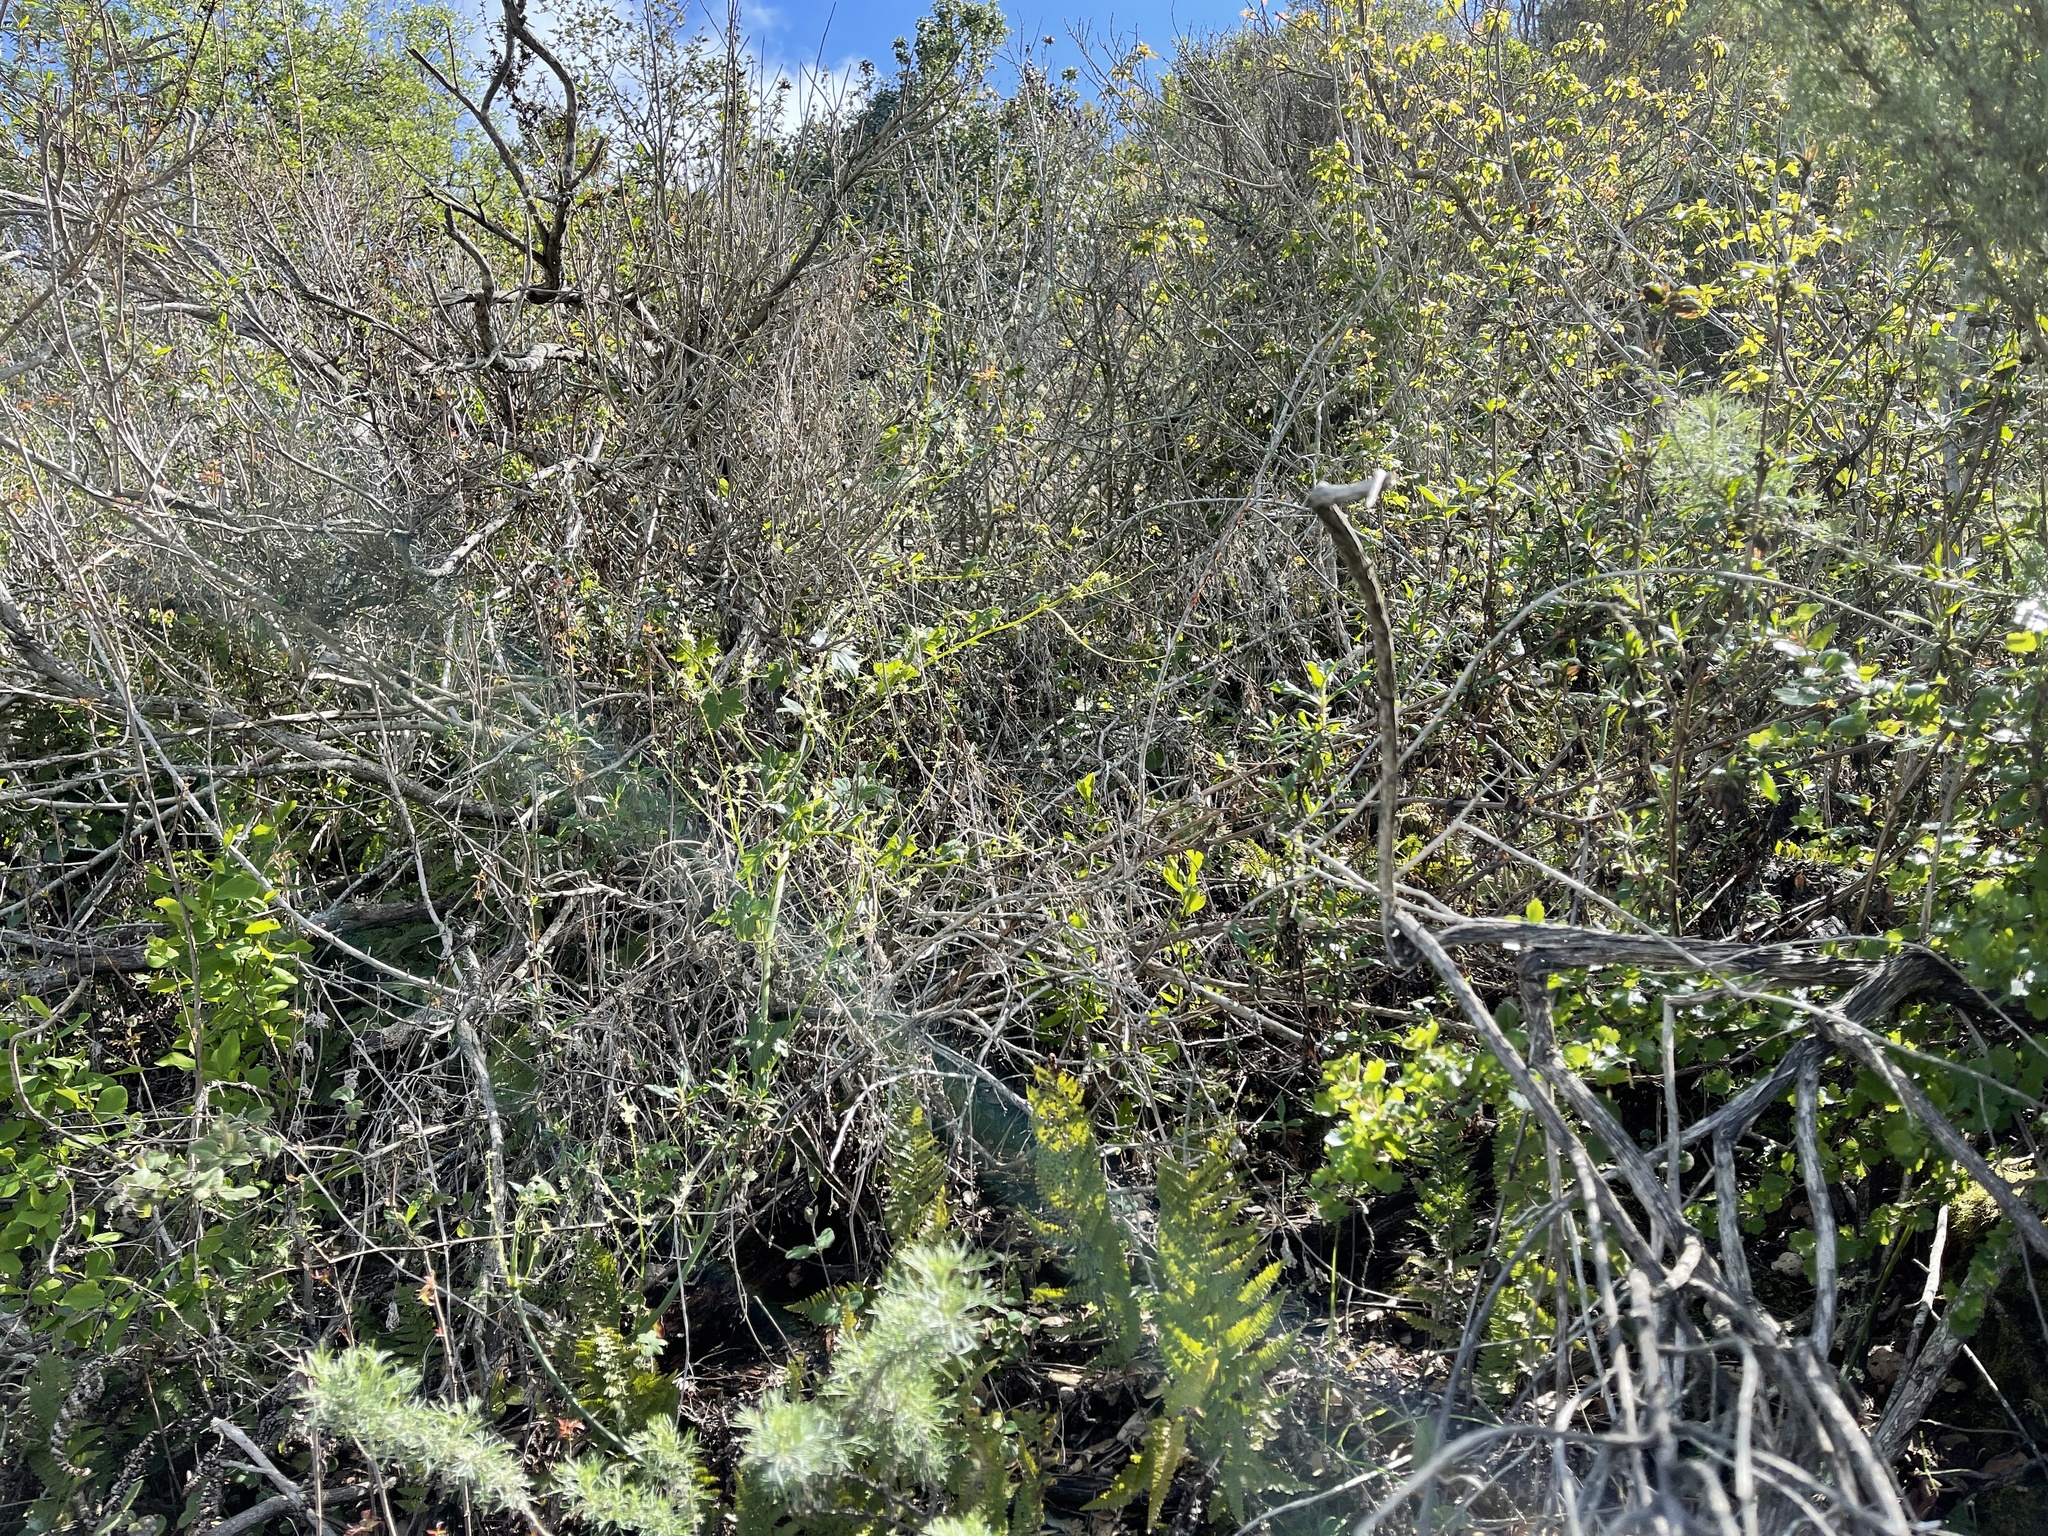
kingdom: Plantae
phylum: Tracheophyta
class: Magnoliopsida
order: Malvales
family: Thymelaeaceae
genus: Dirca
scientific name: Dirca occidentalis
